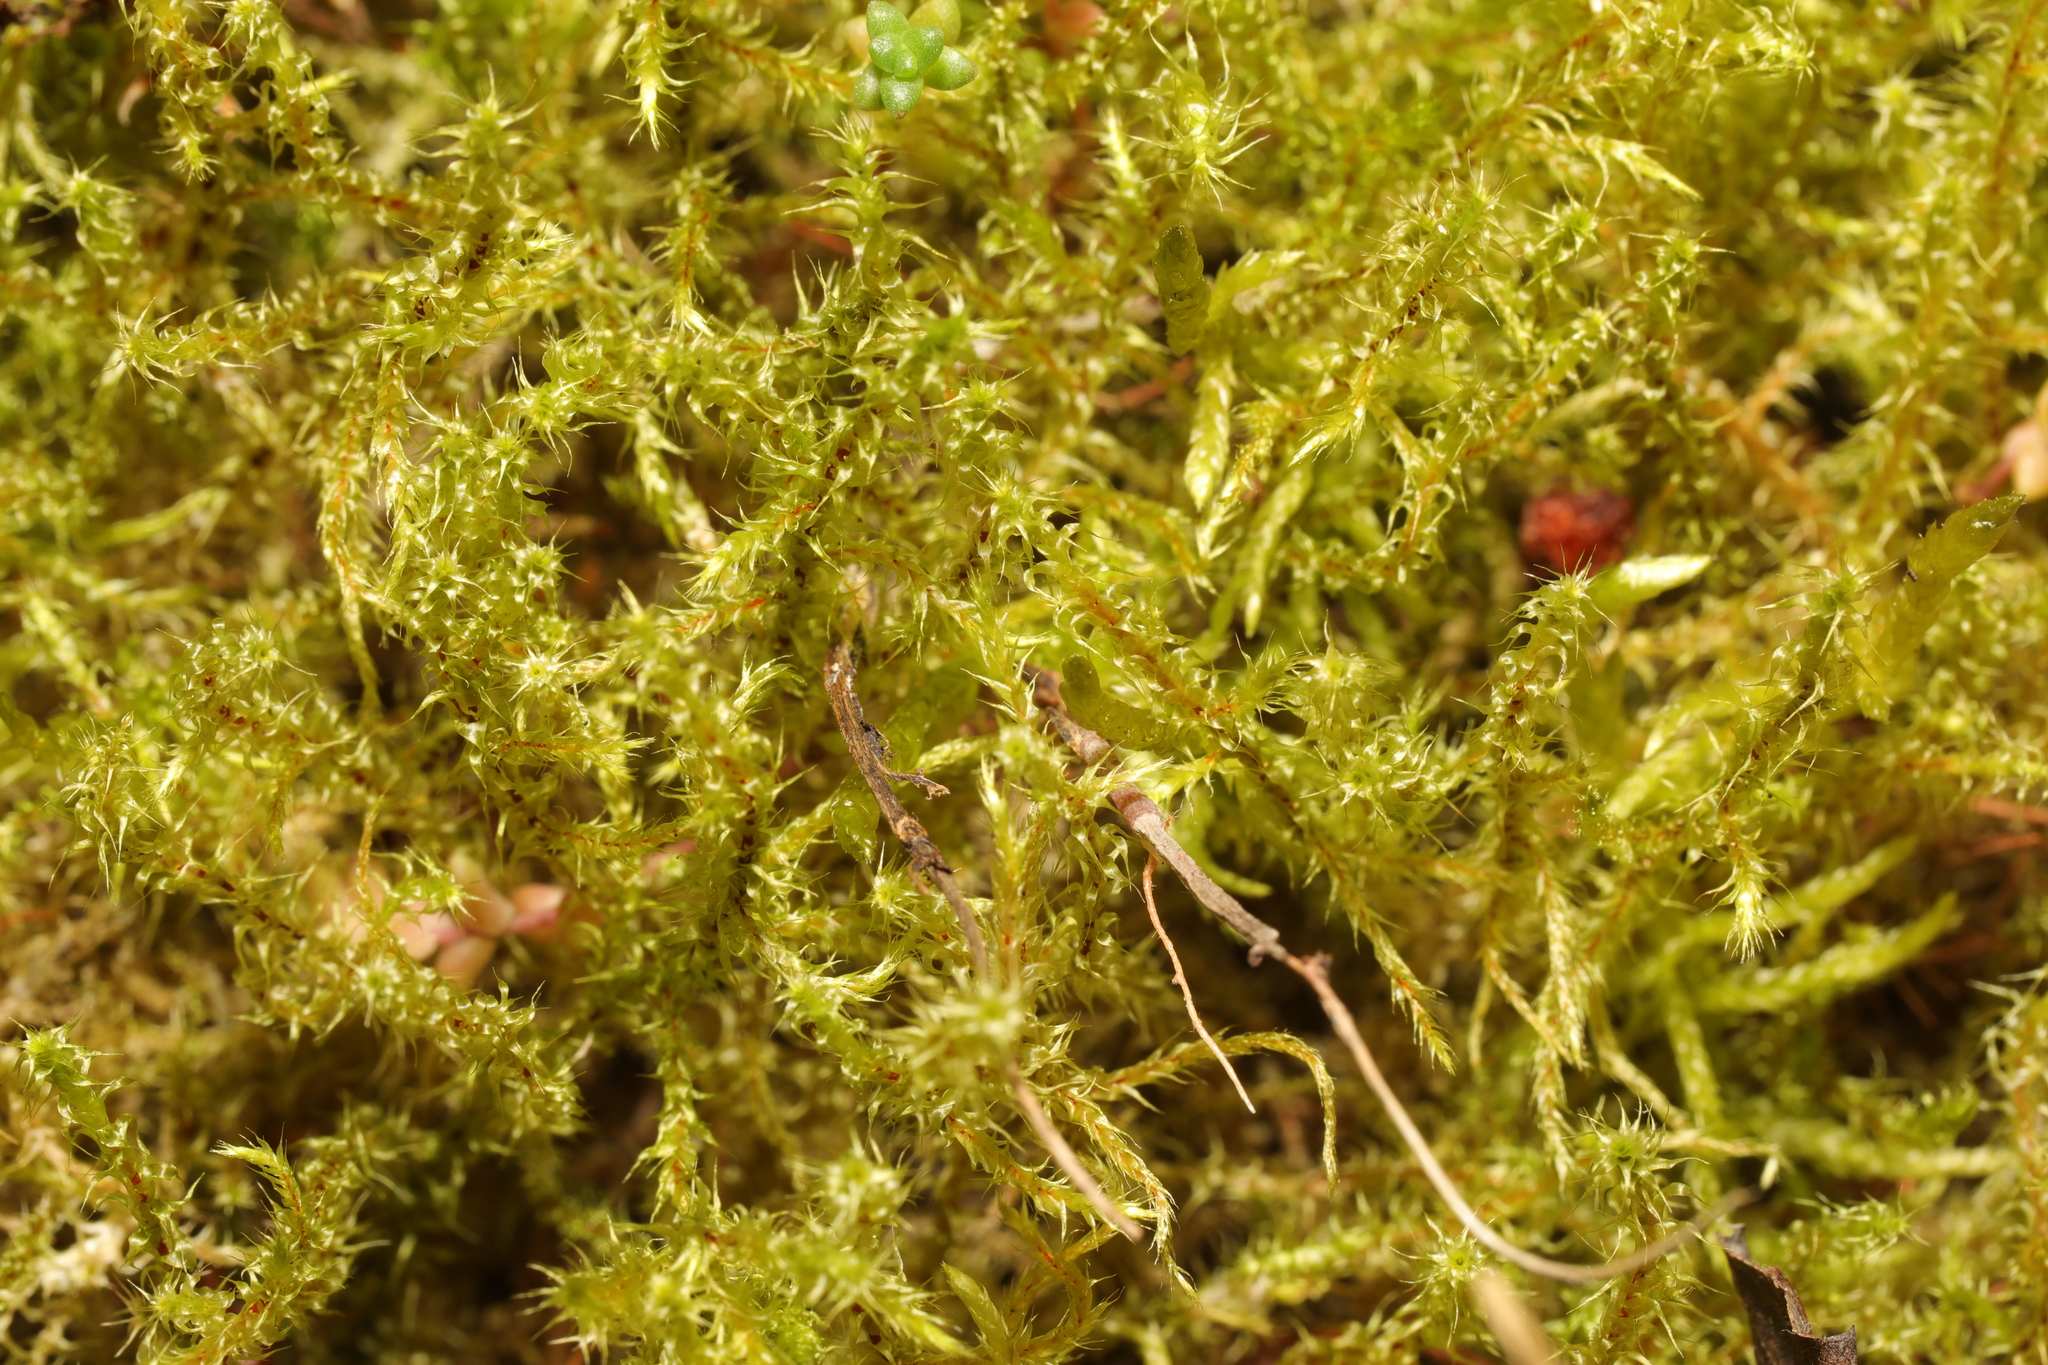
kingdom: Plantae
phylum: Bryophyta
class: Bryopsida
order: Hypnales
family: Hylocomiaceae
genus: Rhytidiadelphus
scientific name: Rhytidiadelphus squarrosus
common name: Springy turf-moss
